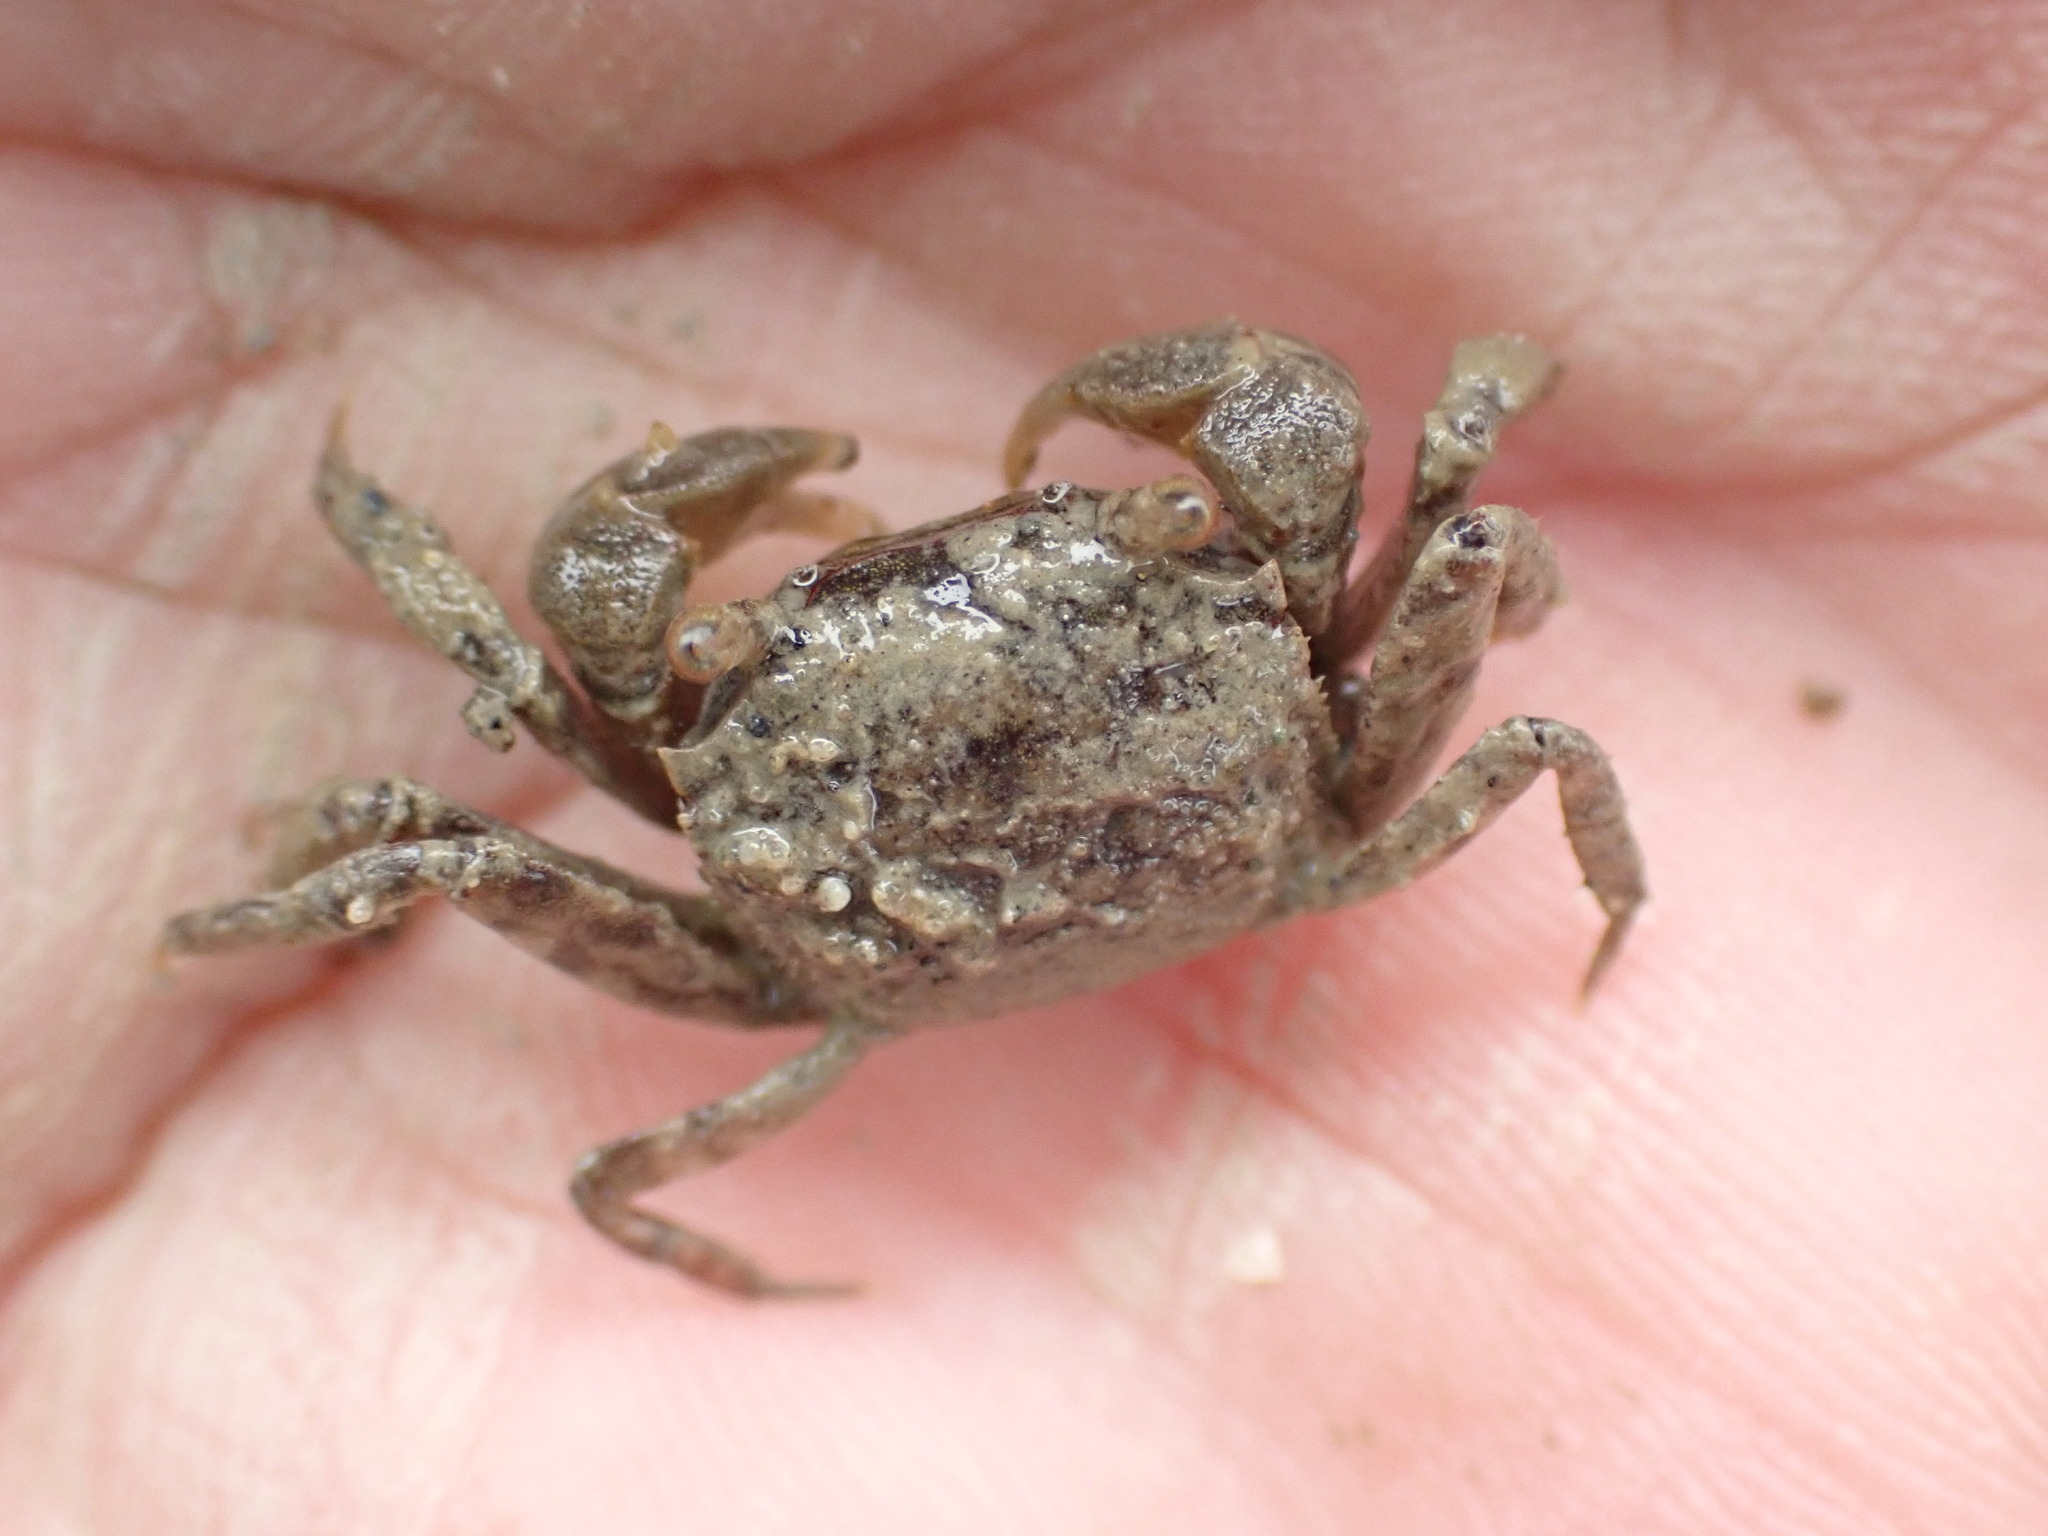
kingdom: Animalia
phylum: Arthropoda
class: Malacostraca
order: Decapoda
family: Varunidae
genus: Austrohelice
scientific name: Austrohelice crassa
